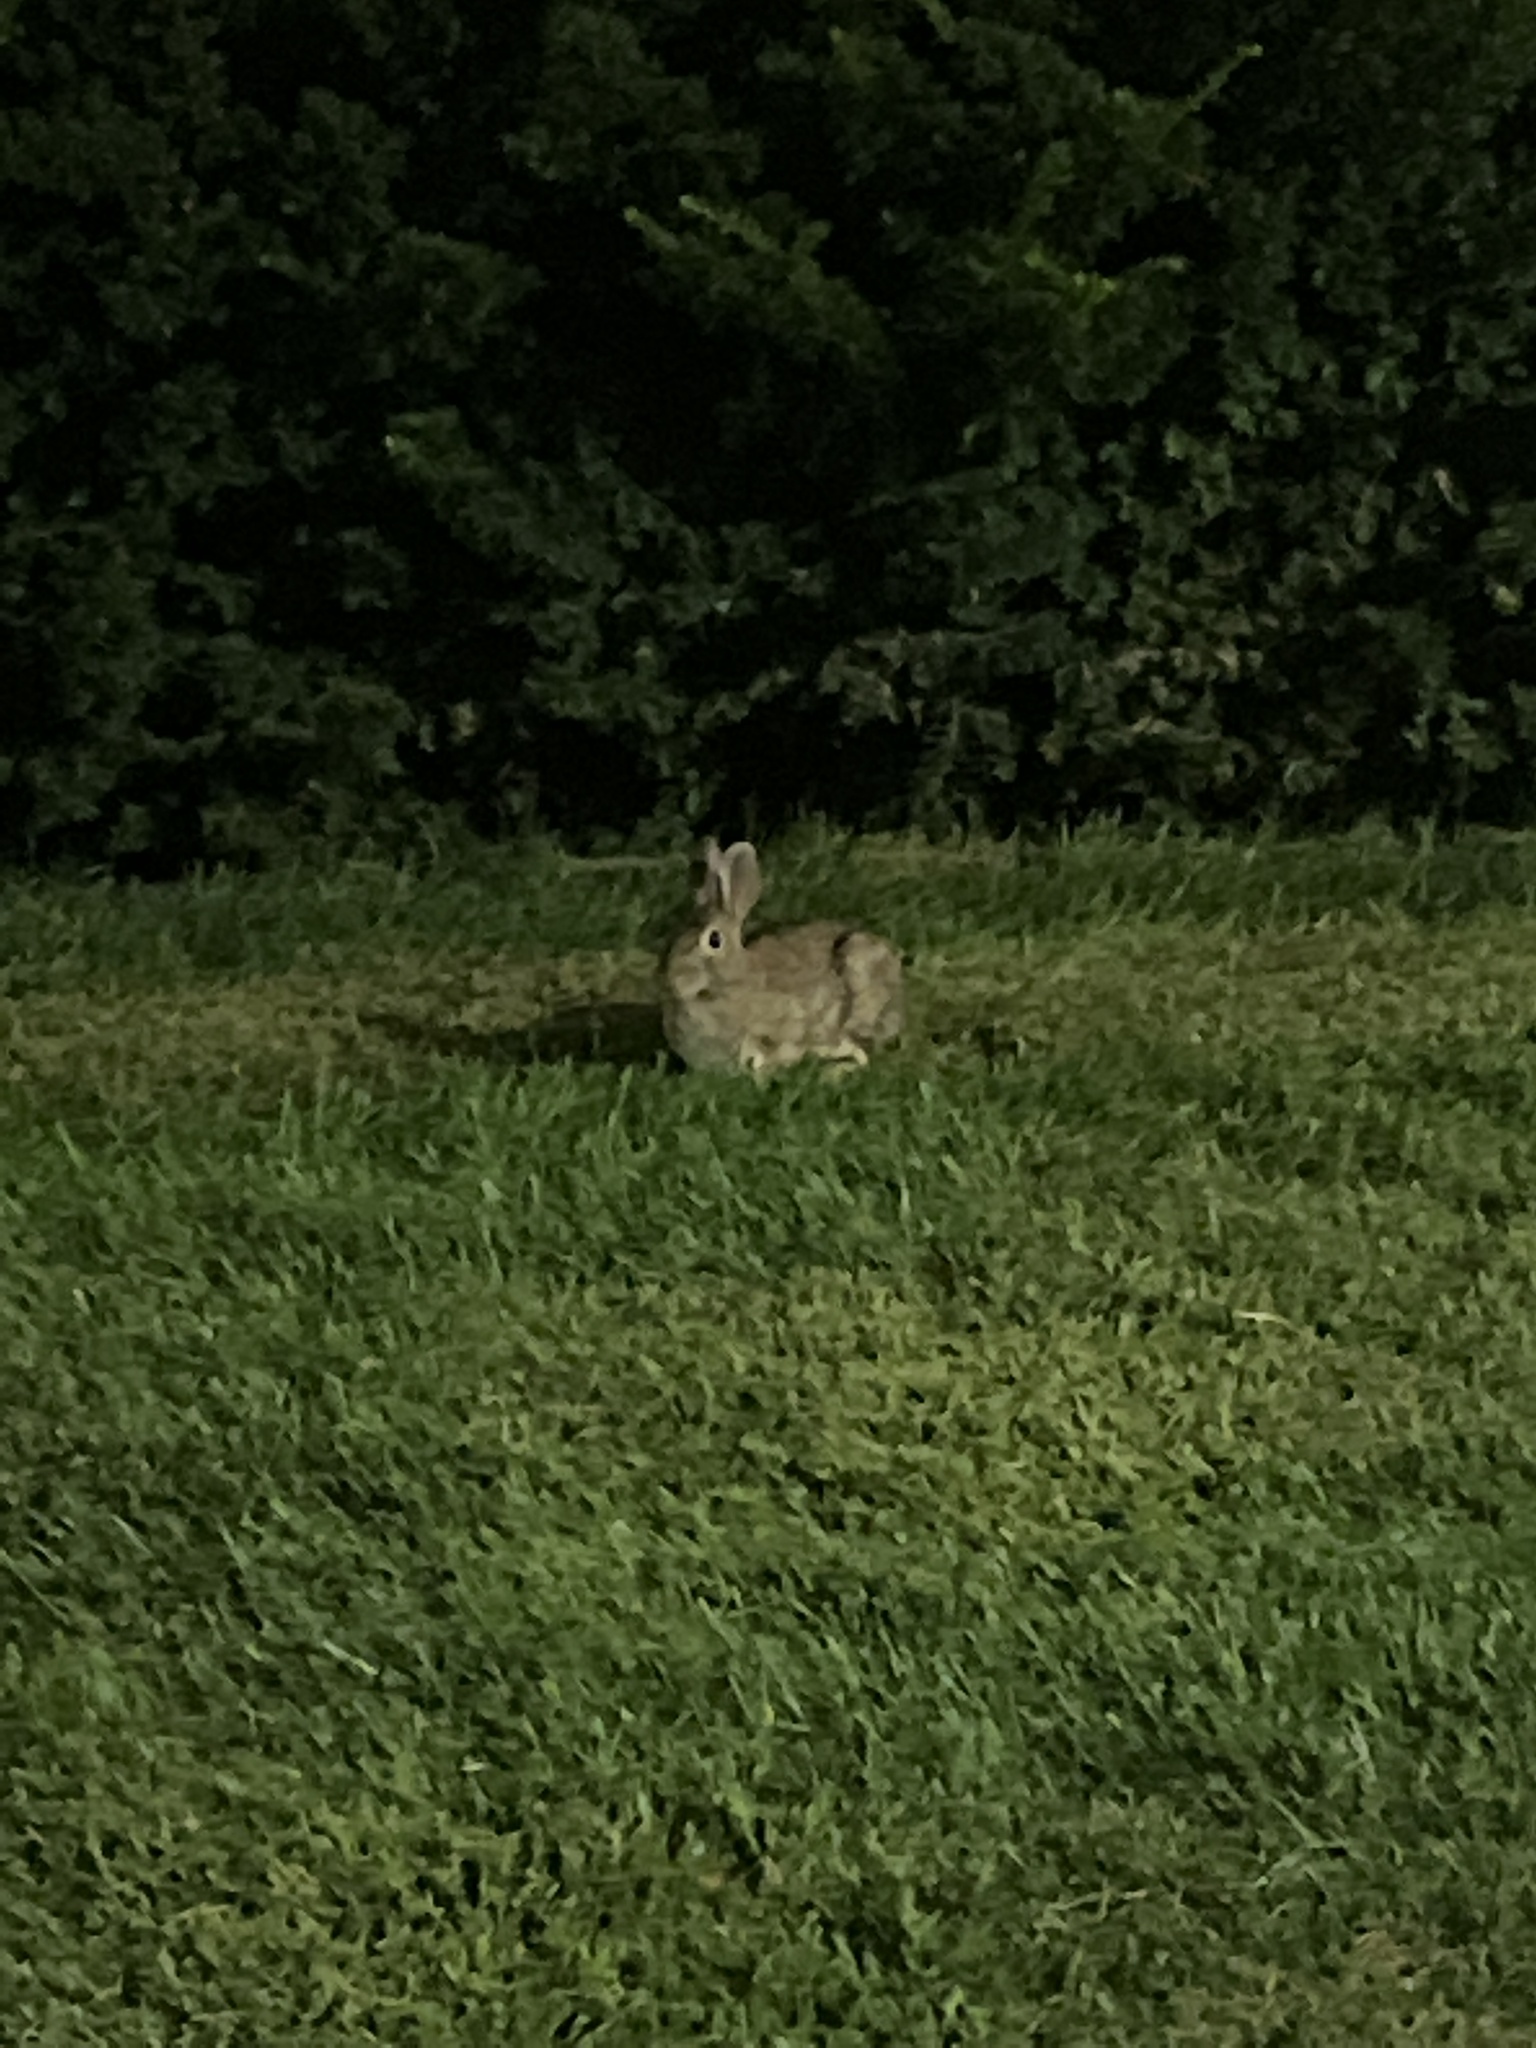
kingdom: Animalia
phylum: Chordata
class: Mammalia
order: Lagomorpha
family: Leporidae
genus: Sylvilagus
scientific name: Sylvilagus floridanus
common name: Eastern cottontail
